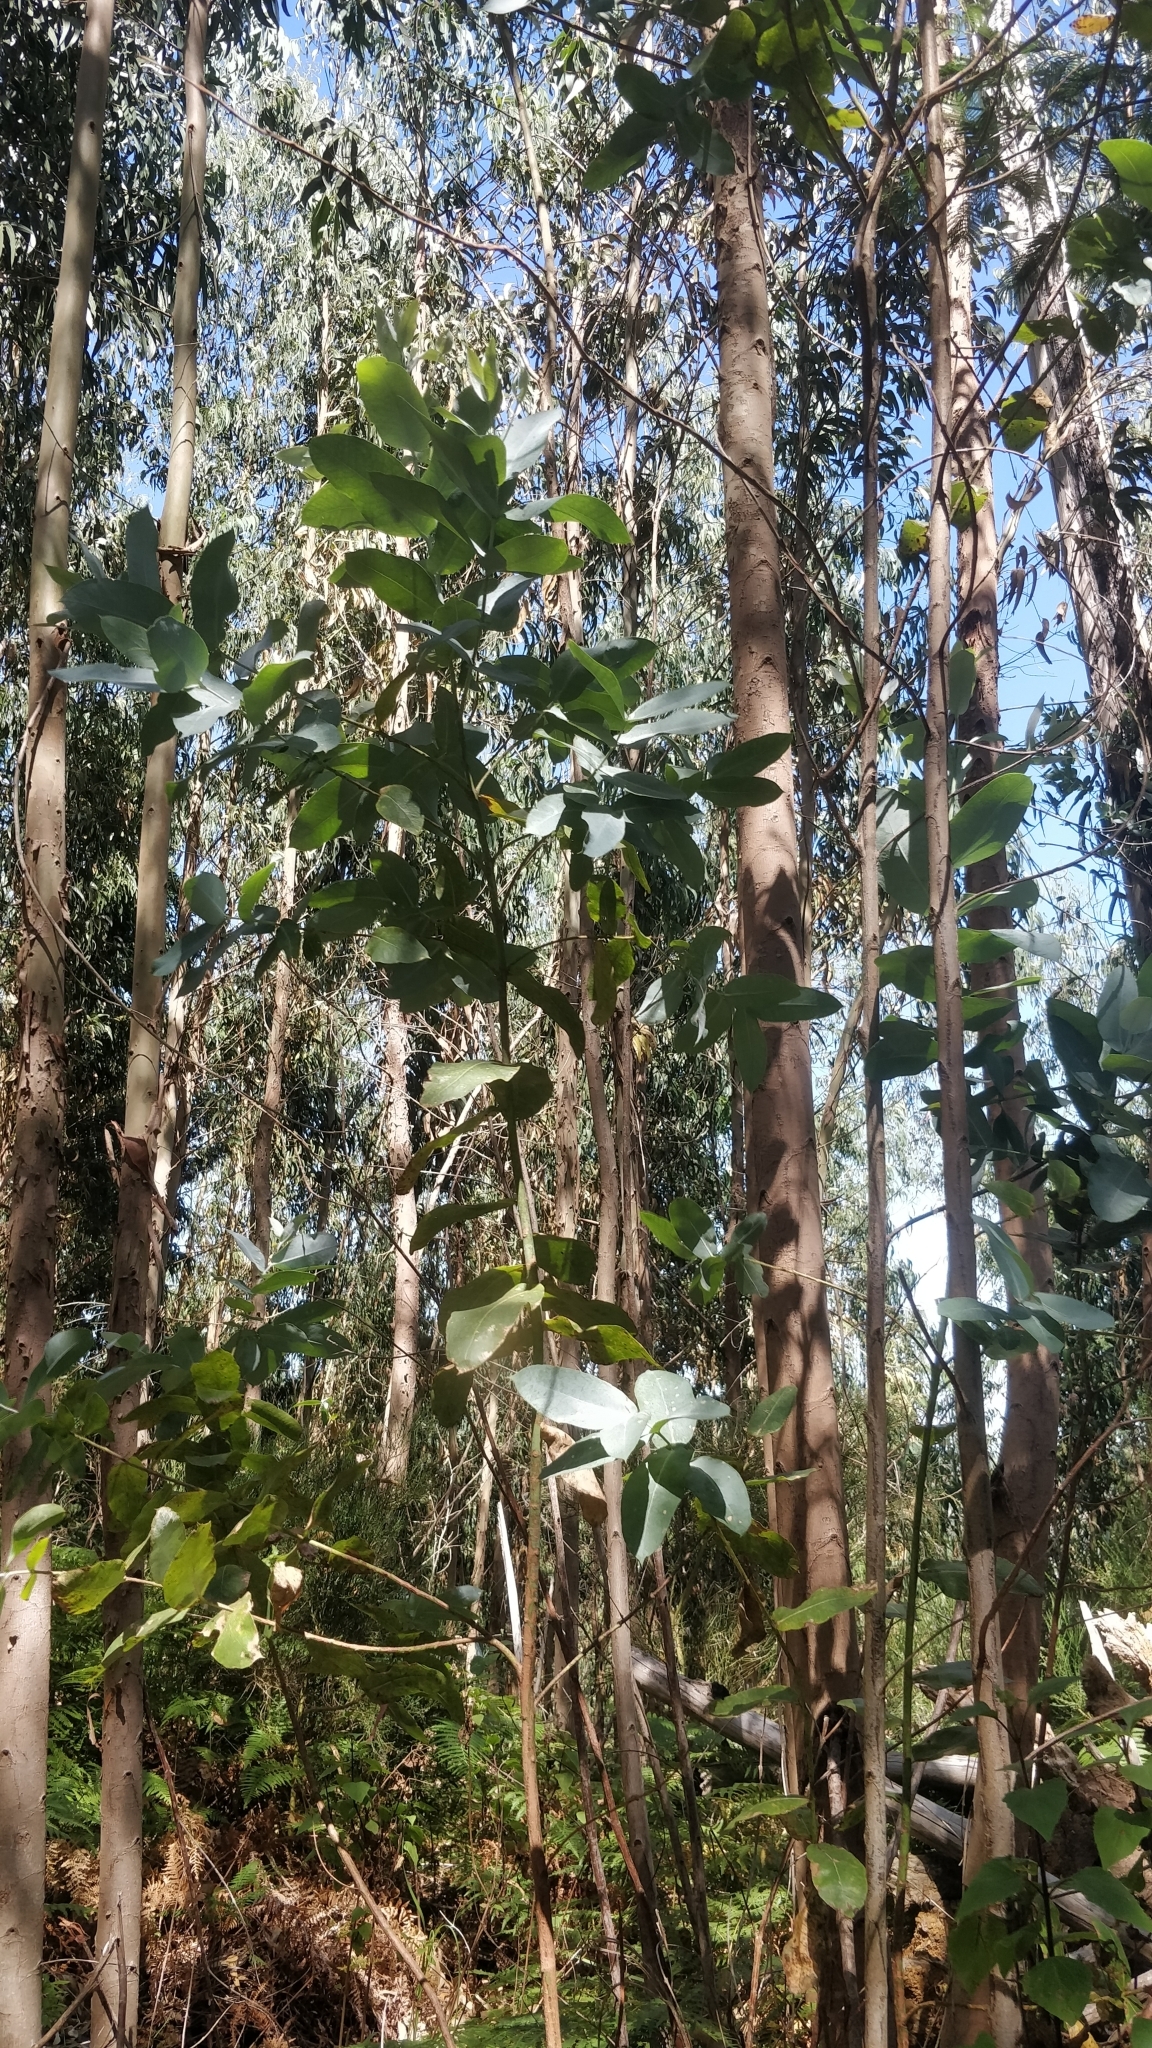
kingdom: Plantae
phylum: Tracheophyta
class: Magnoliopsida
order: Myrtales
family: Myrtaceae
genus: Eucalyptus
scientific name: Eucalyptus globulus
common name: Southern blue-gum
